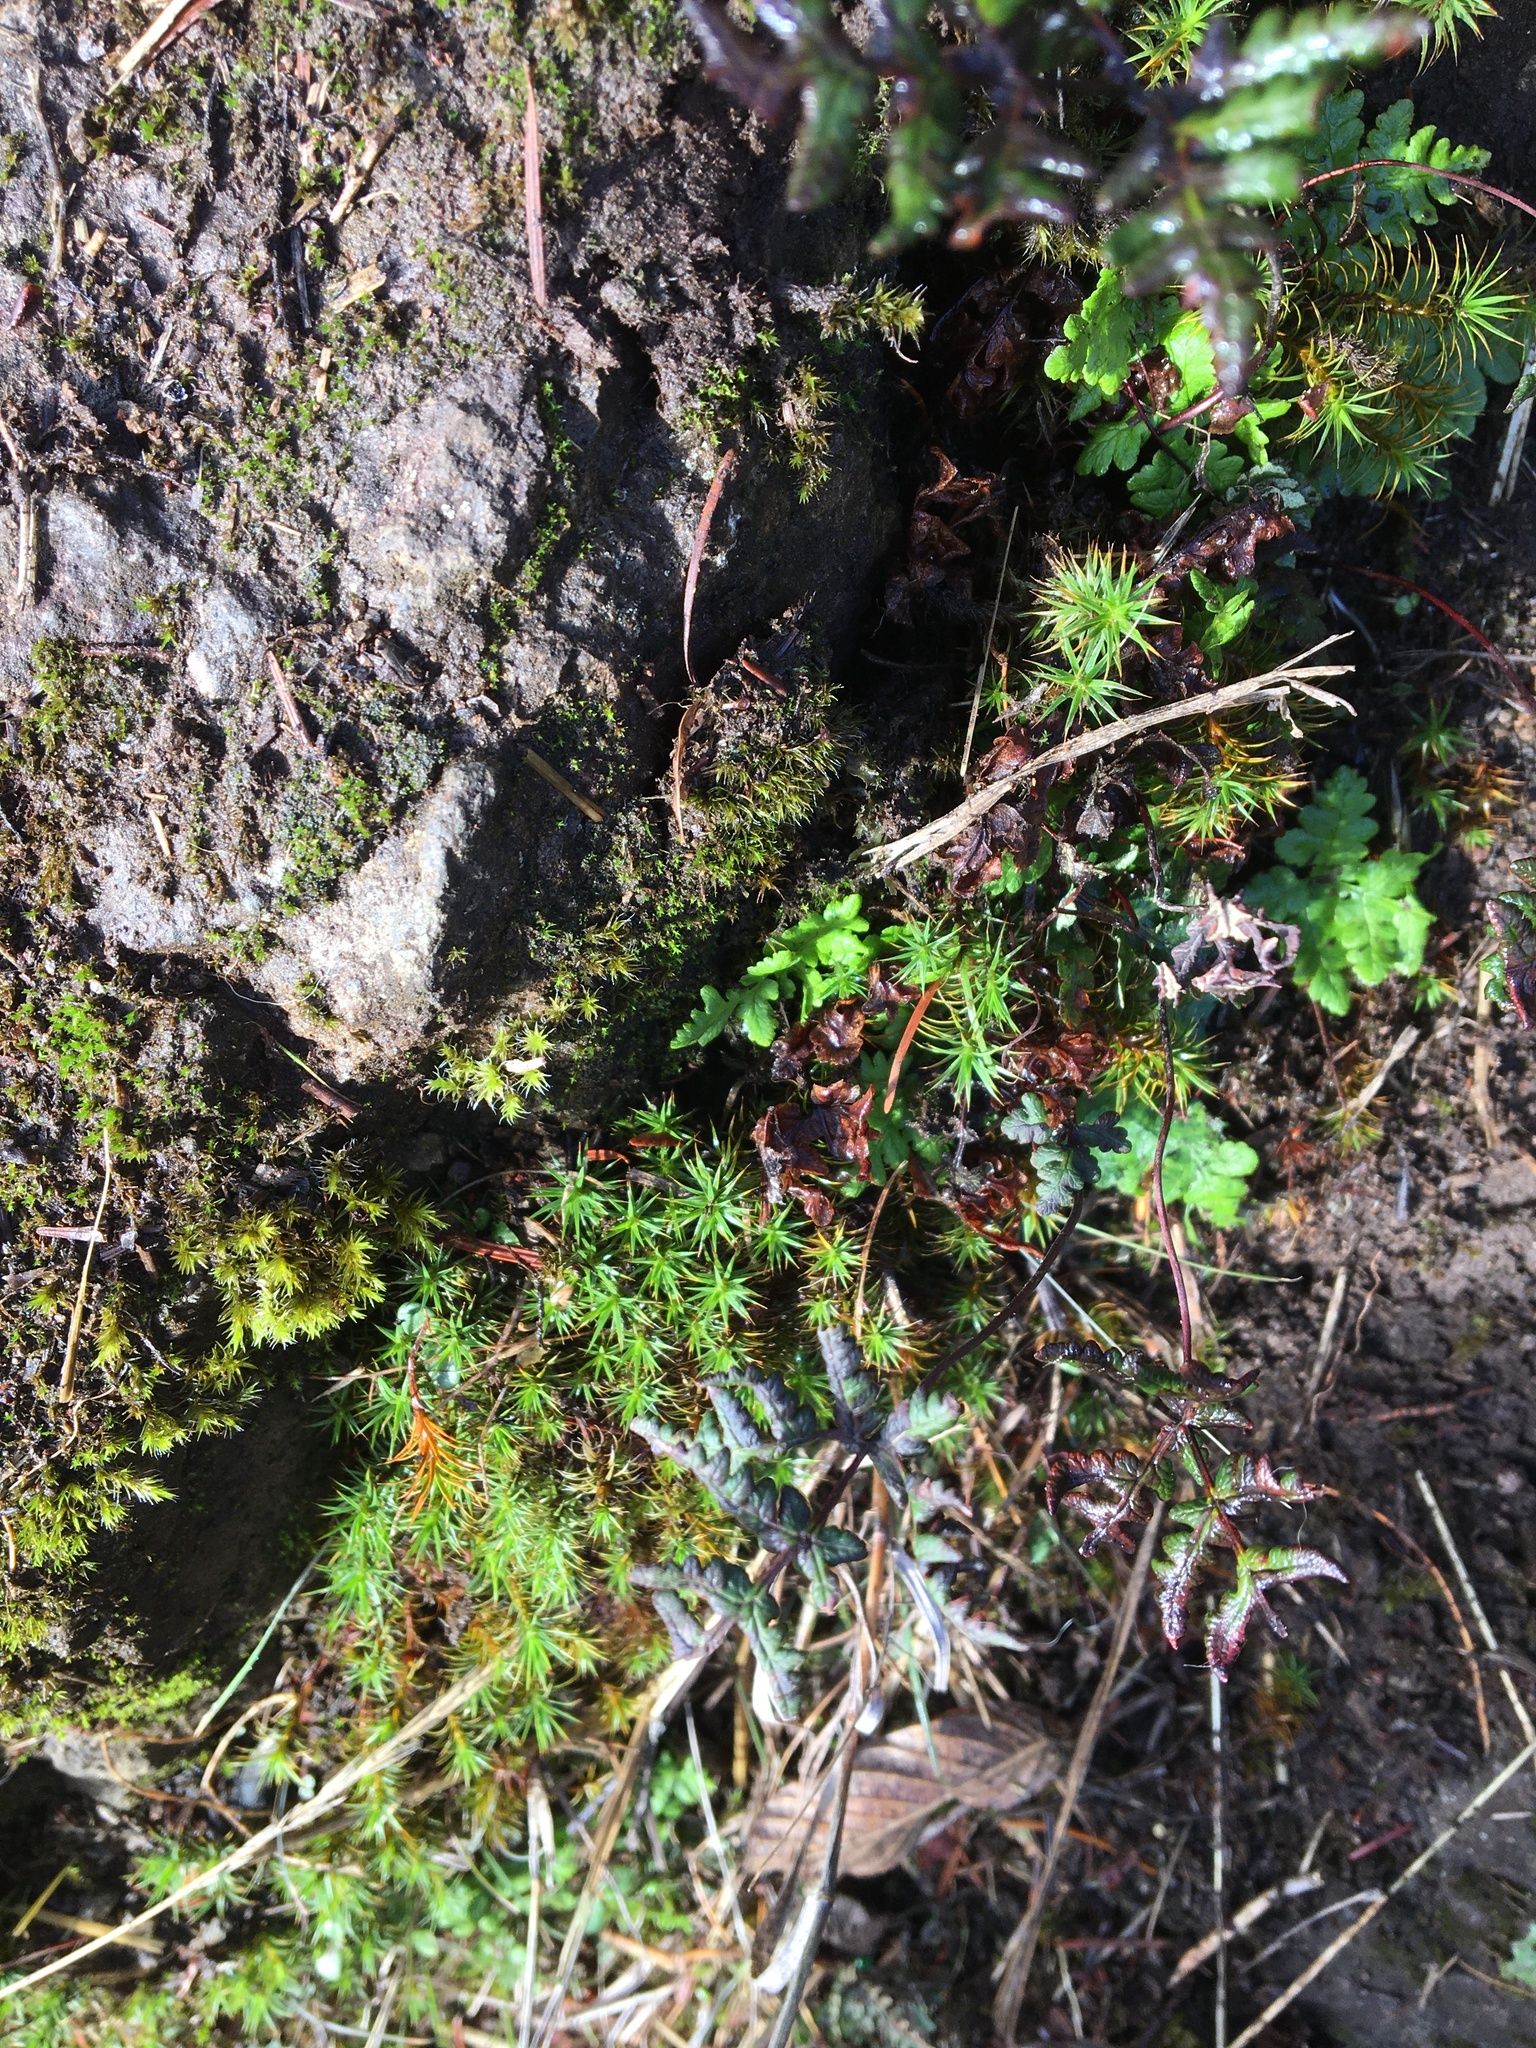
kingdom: Plantae
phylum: Tracheophyta
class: Polypodiopsida
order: Polypodiales
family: Pteridaceae
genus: Pentagramma
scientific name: Pentagramma triangularis
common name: Gold fern
